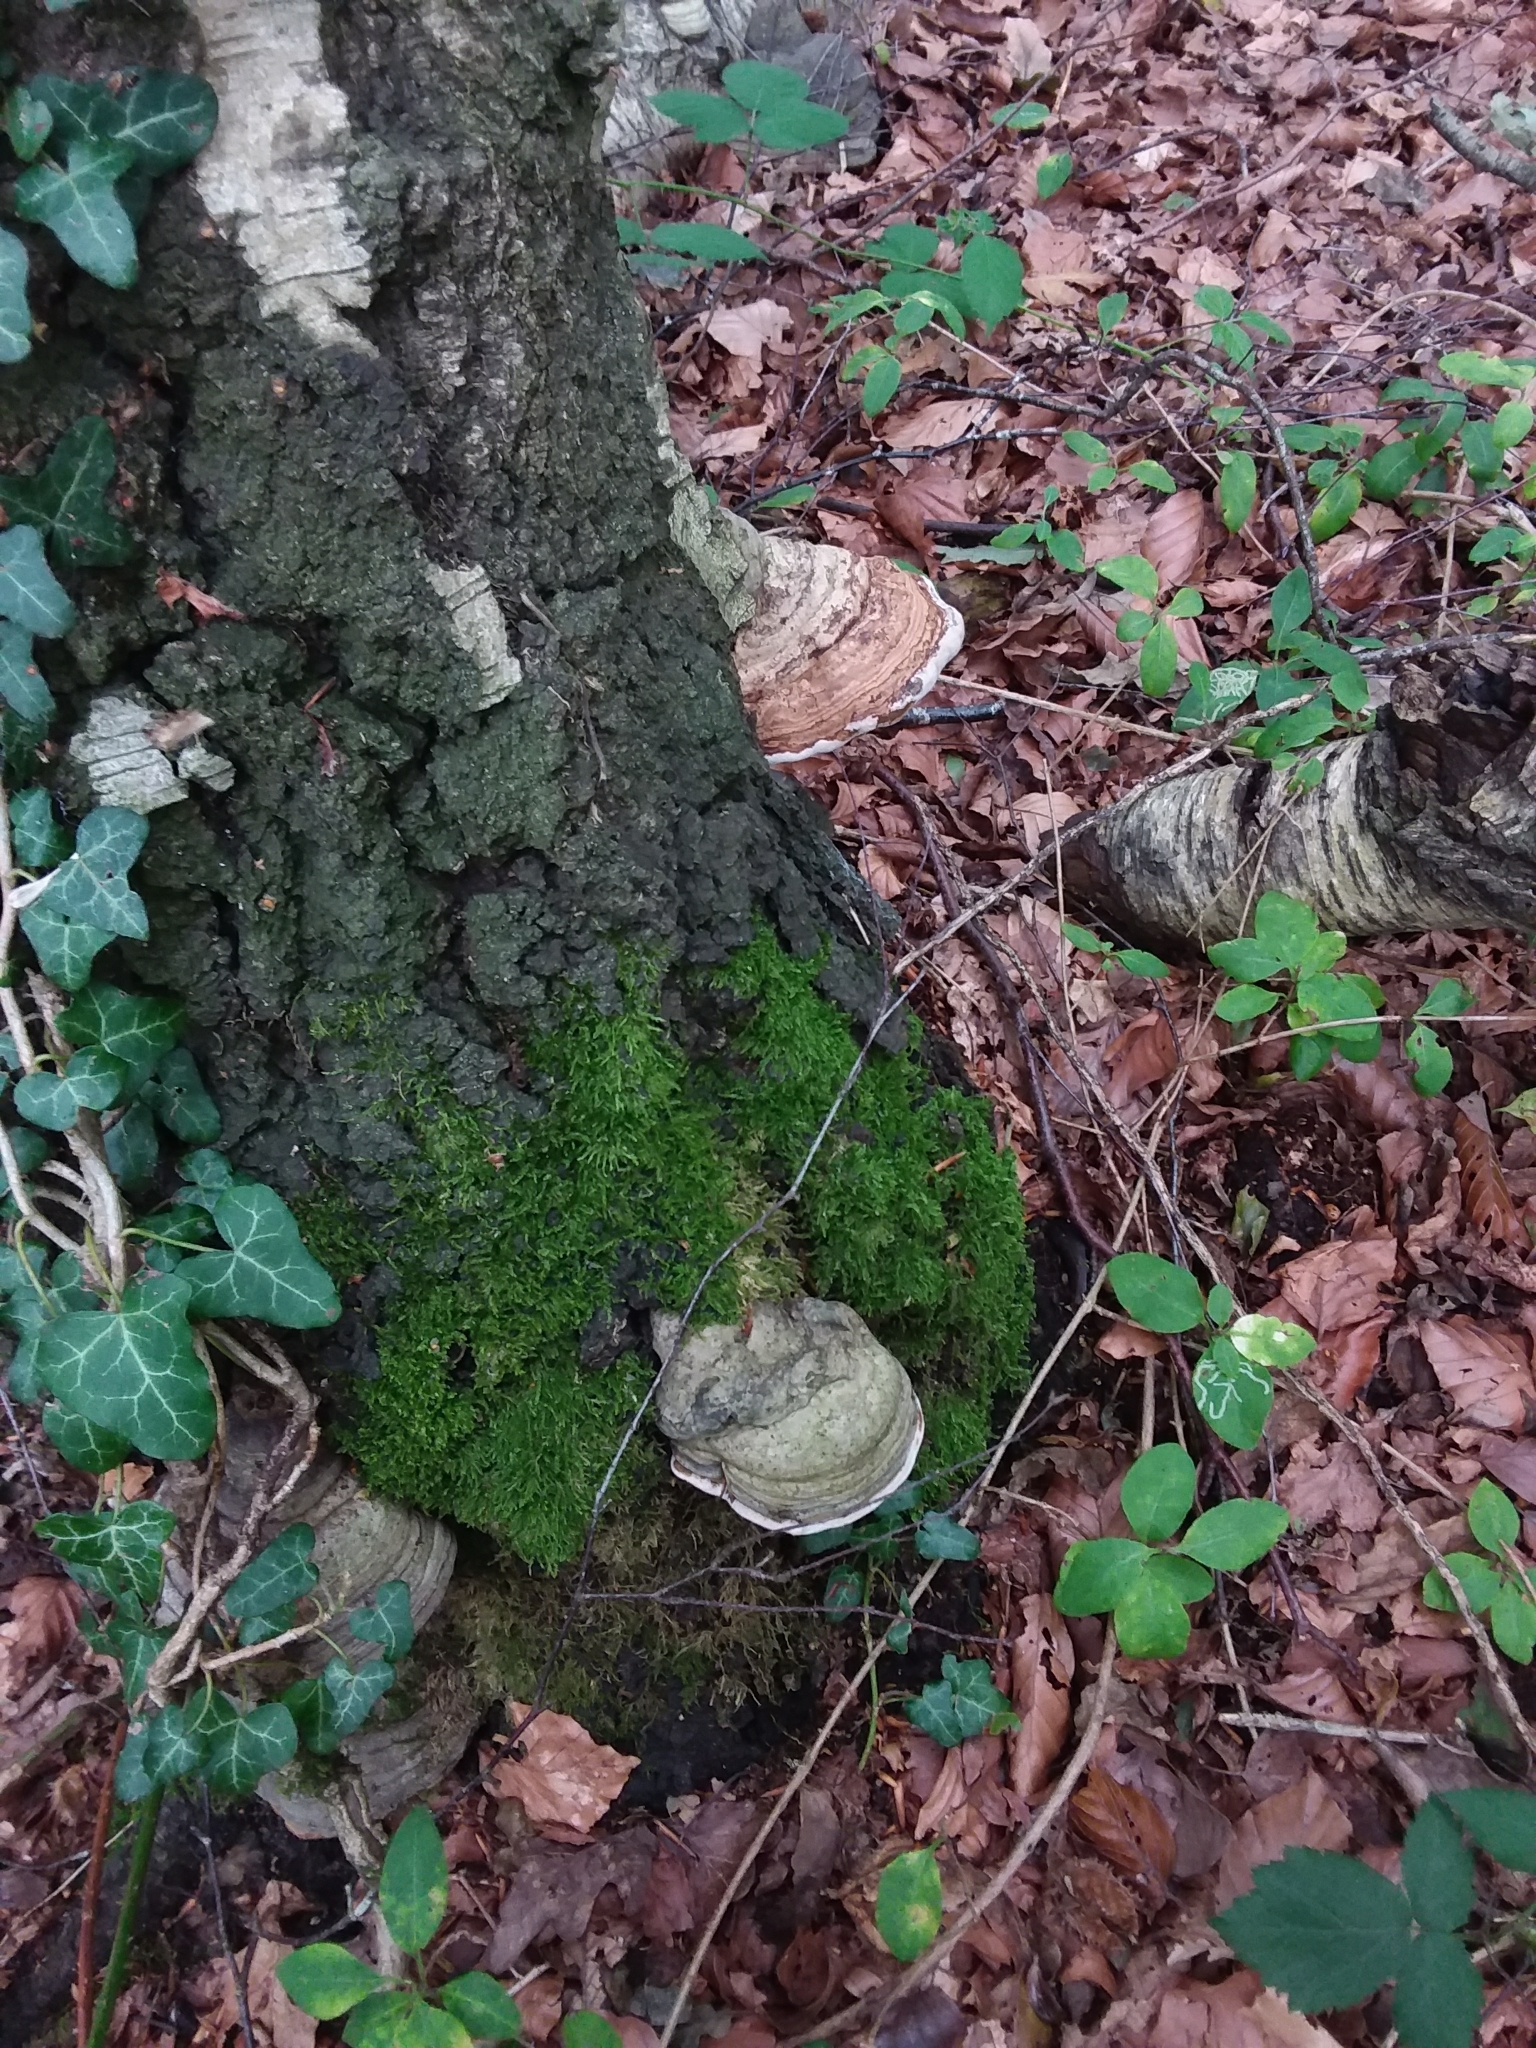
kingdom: Fungi
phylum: Basidiomycota
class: Agaricomycetes
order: Polyporales
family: Polyporaceae
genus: Fomes
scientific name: Fomes fomentarius
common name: Hoof fungus
